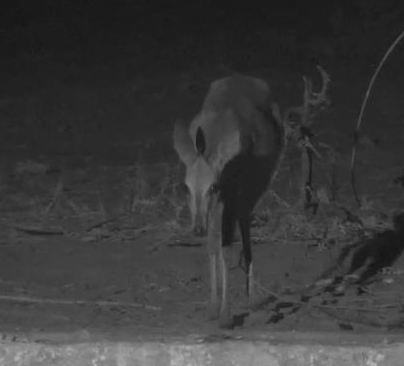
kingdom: Animalia
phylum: Chordata
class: Mammalia
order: Artiodactyla
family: Bovidae
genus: Sylvicapra
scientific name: Sylvicapra grimmia
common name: Bush duiker
